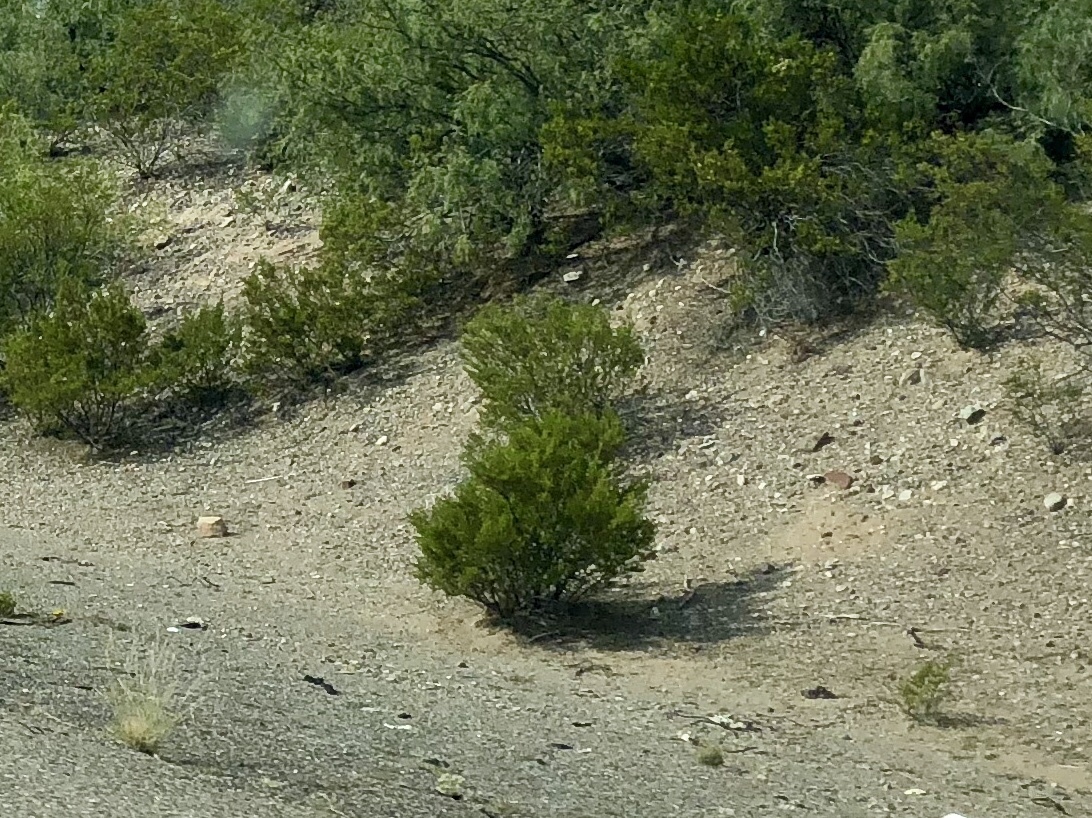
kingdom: Plantae
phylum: Tracheophyta
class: Magnoliopsida
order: Zygophyllales
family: Zygophyllaceae
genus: Larrea
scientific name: Larrea tridentata
